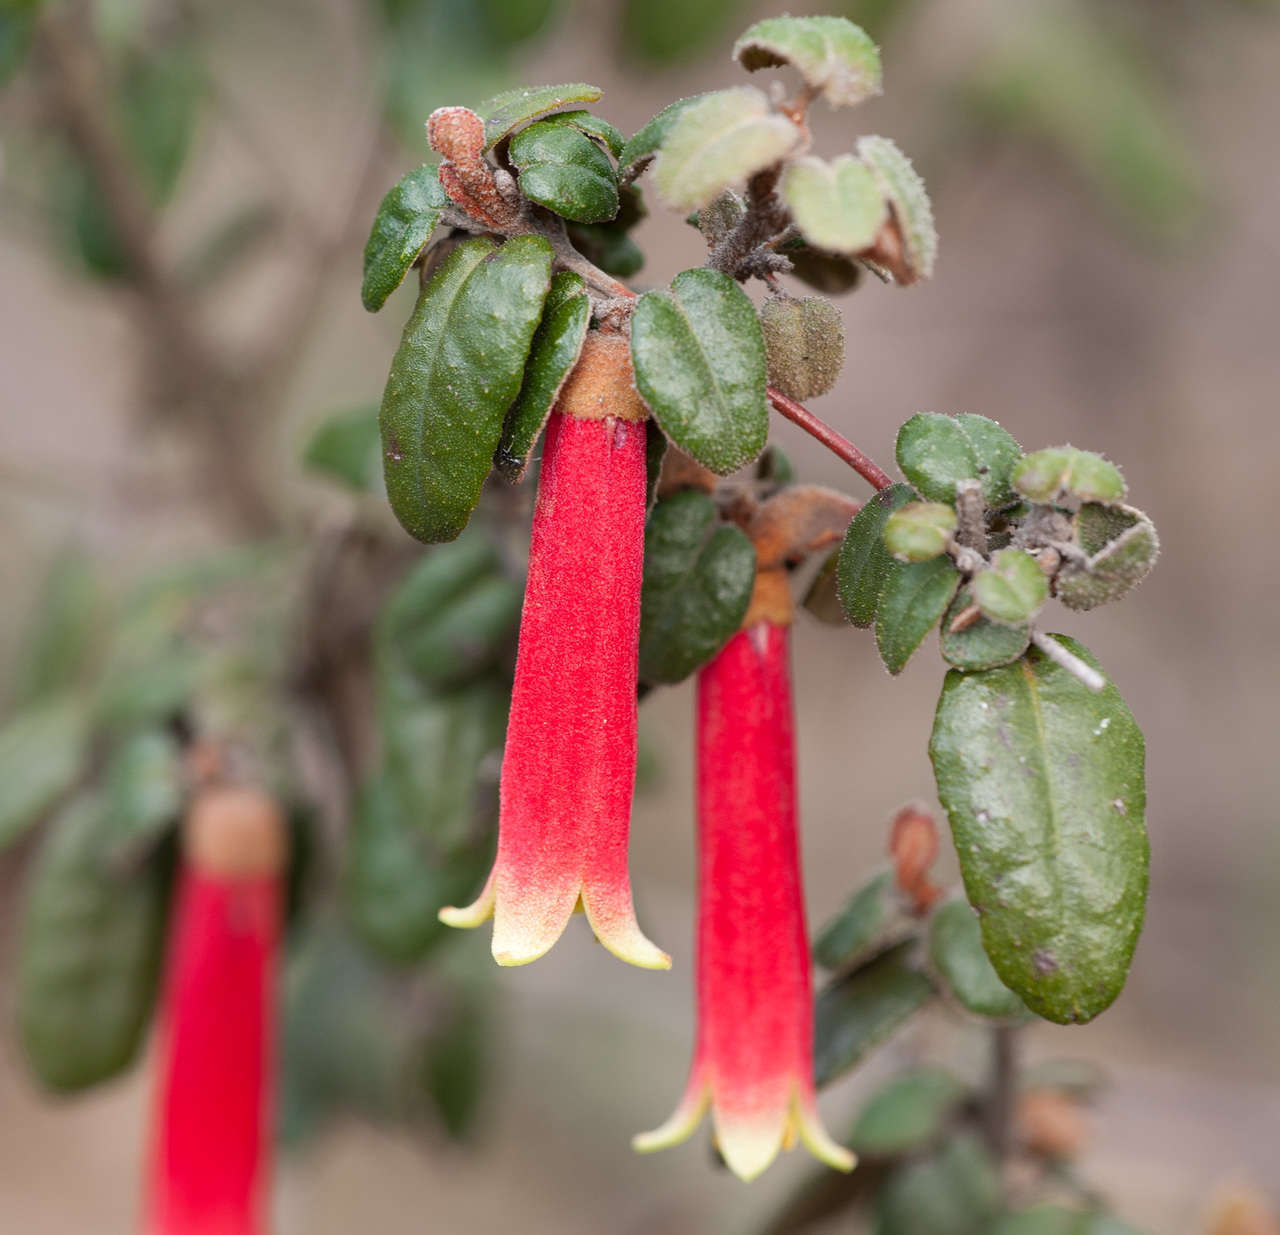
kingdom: Plantae
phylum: Tracheophyta
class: Magnoliopsida
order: Sapindales
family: Rutaceae
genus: Correa
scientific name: Correa reflexa
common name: Common correa
